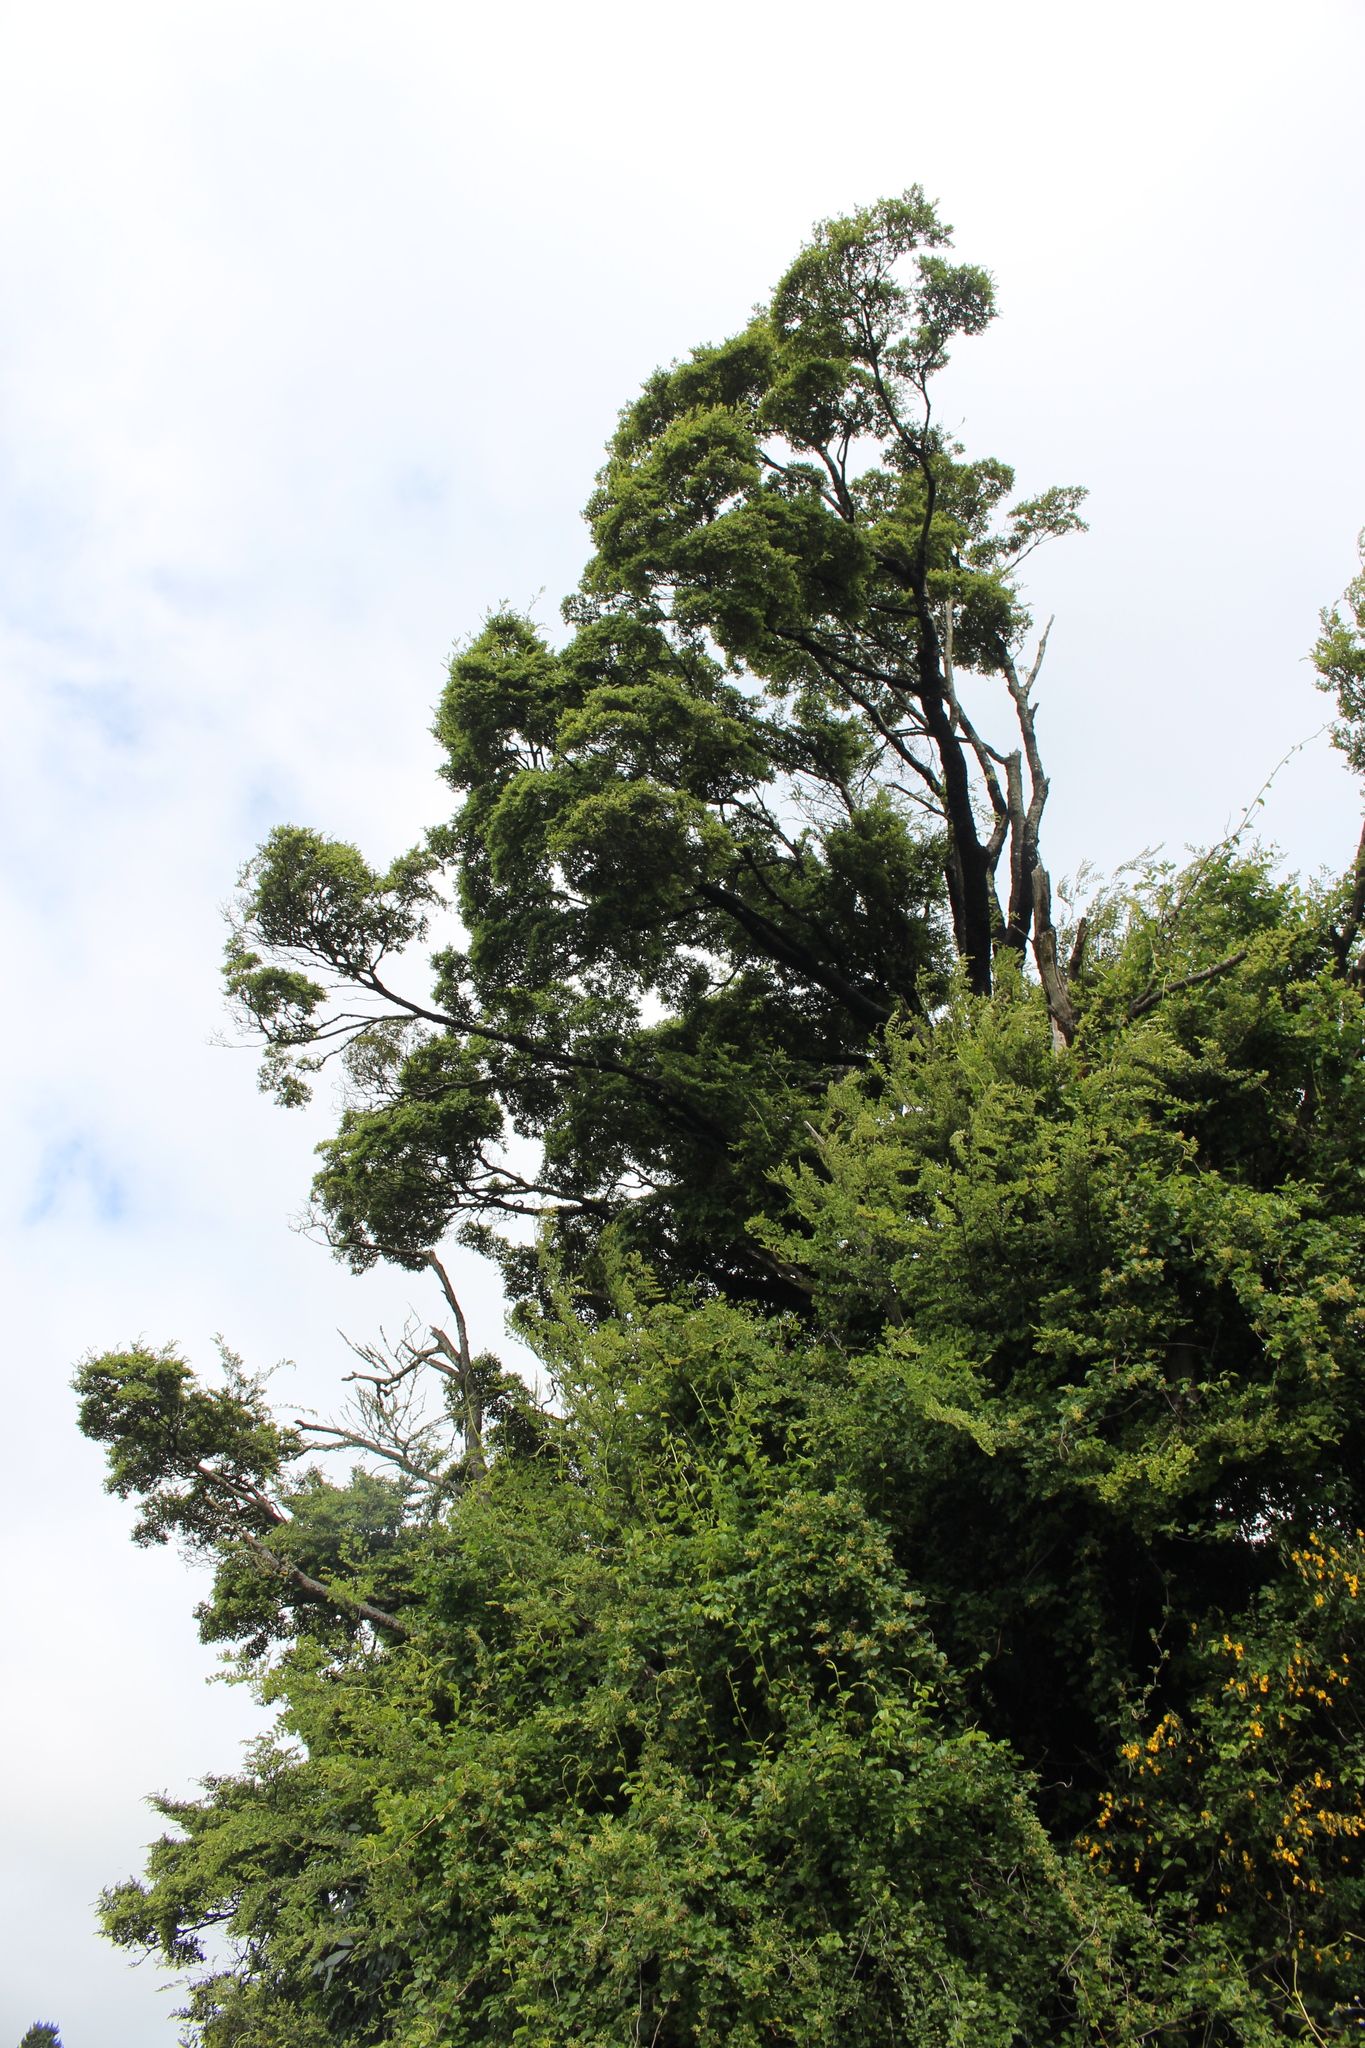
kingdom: Plantae
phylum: Tracheophyta
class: Magnoliopsida
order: Fagales
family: Nothofagaceae
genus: Nothofagus
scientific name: Nothofagus solandri
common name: Black beech
